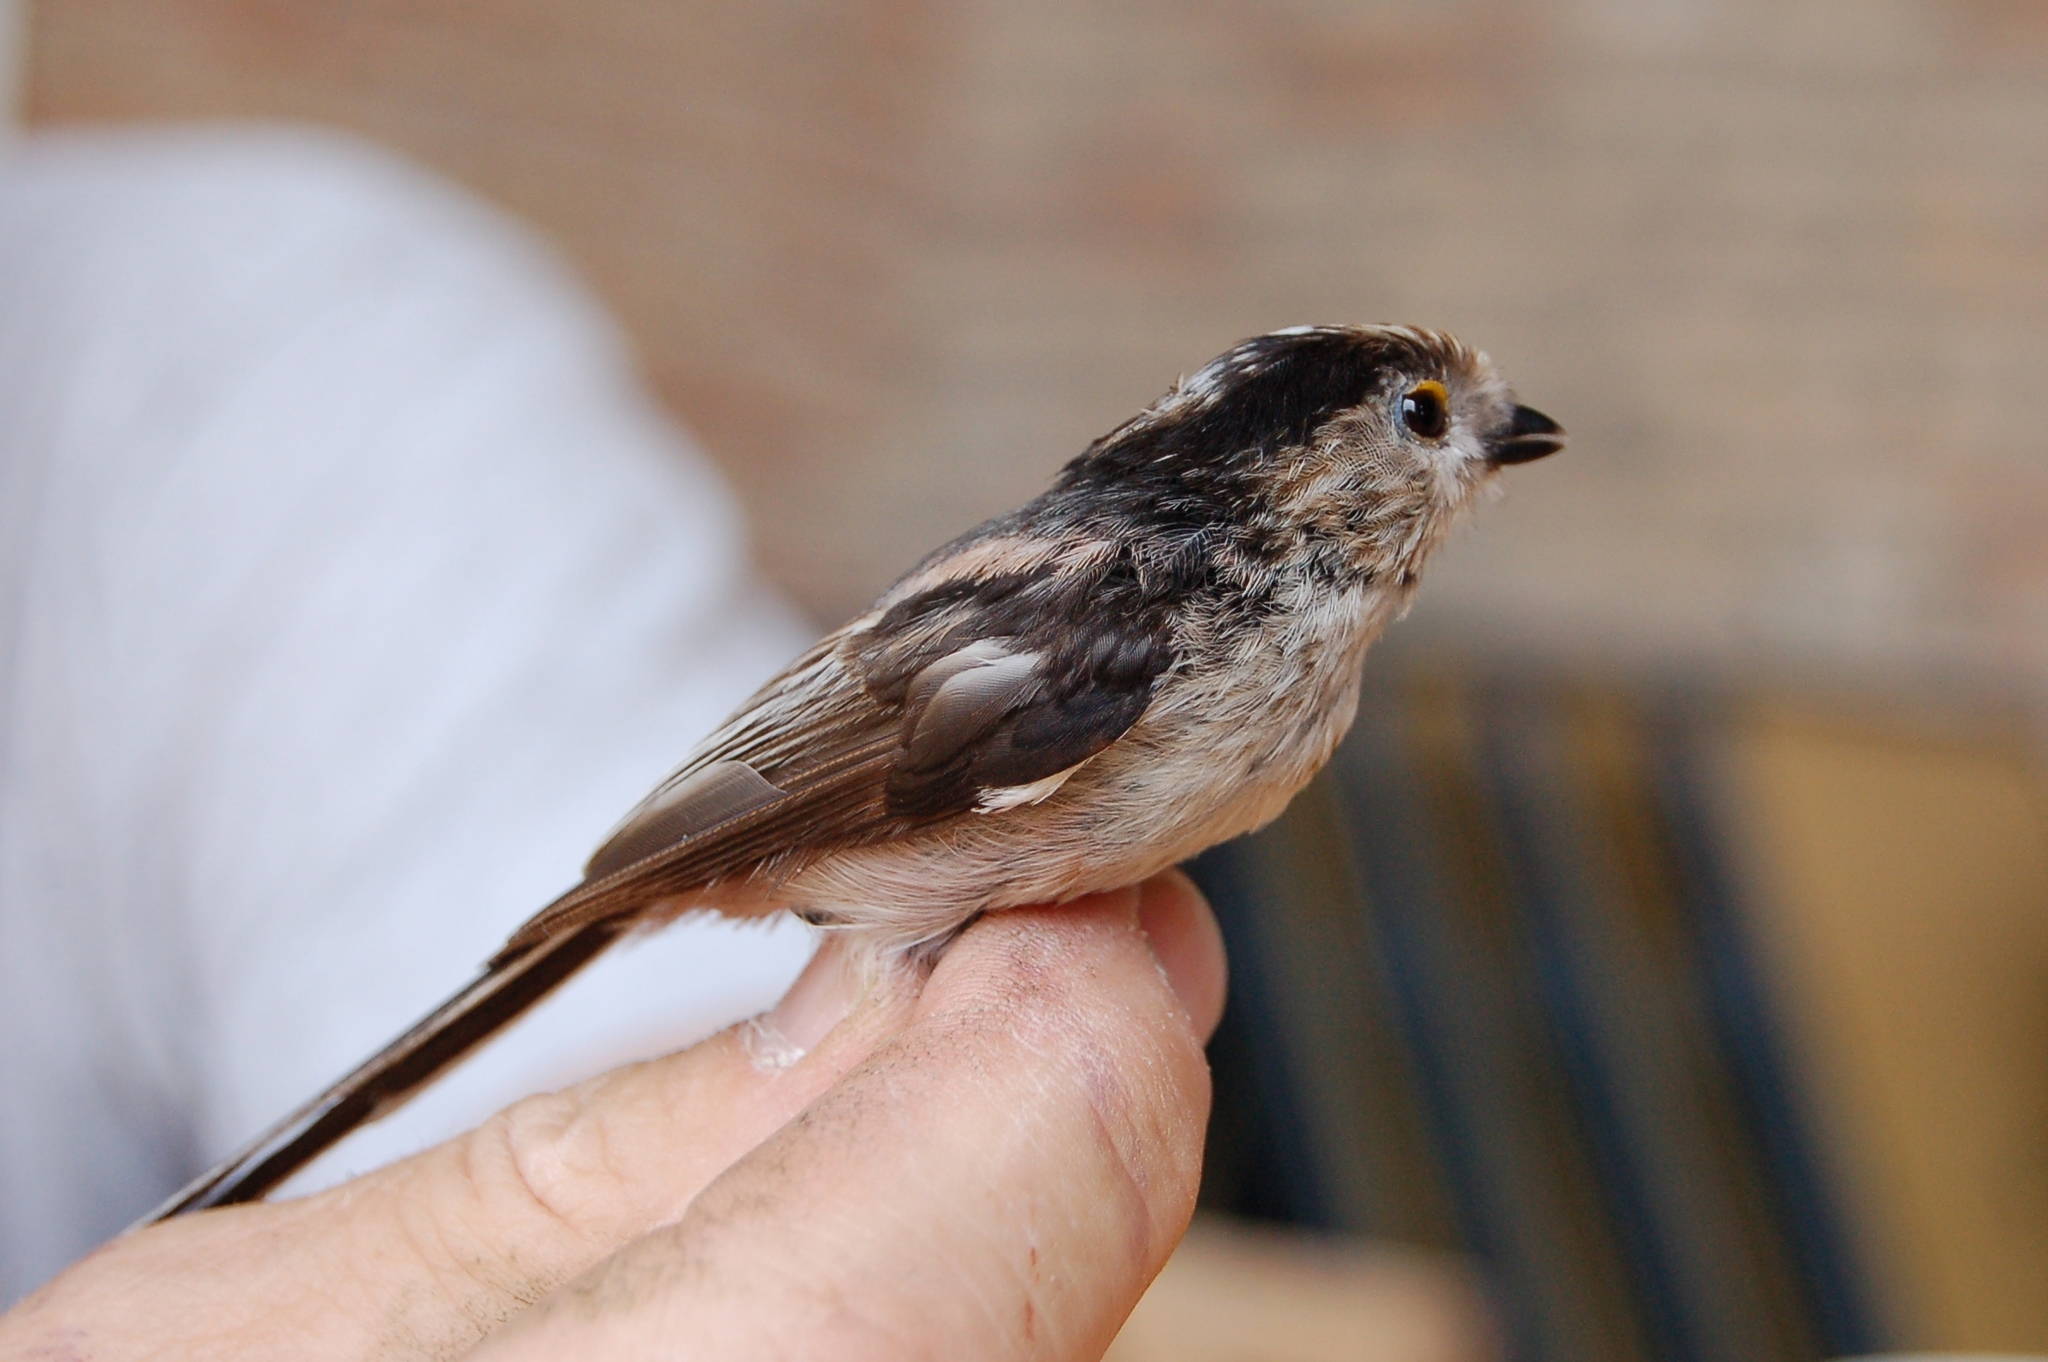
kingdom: Animalia
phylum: Chordata
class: Aves
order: Passeriformes
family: Aegithalidae
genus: Aegithalos
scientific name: Aegithalos caudatus
